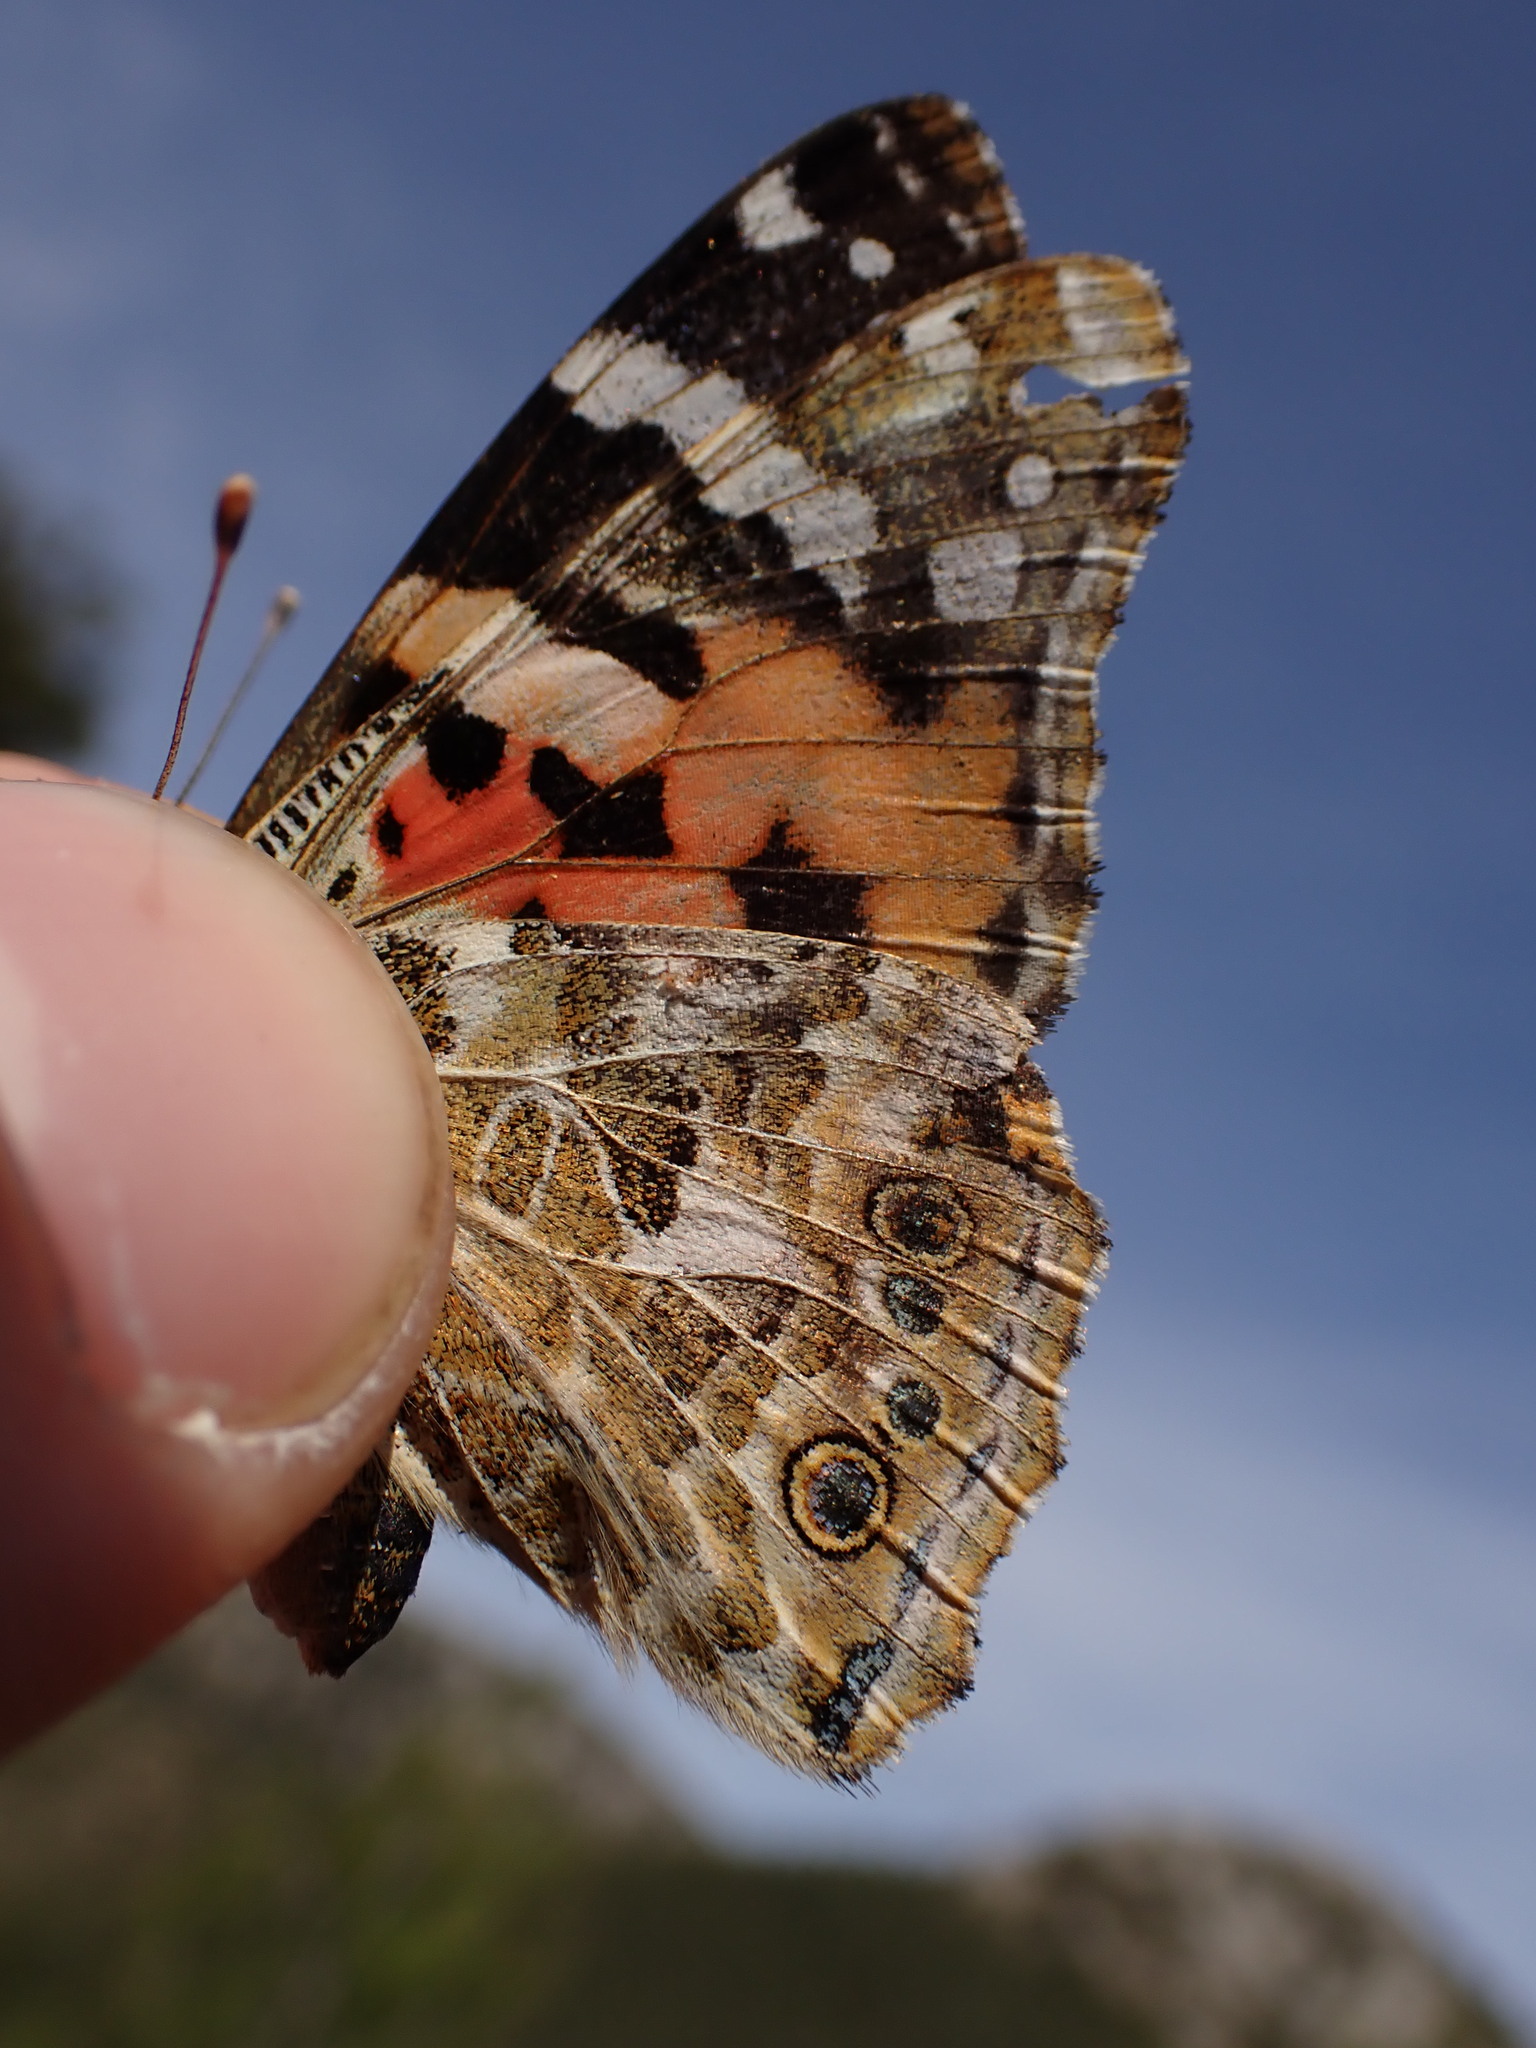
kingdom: Animalia
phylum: Arthropoda
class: Insecta
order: Lepidoptera
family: Nymphalidae
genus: Vanessa
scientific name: Vanessa cardui
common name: Painted lady
